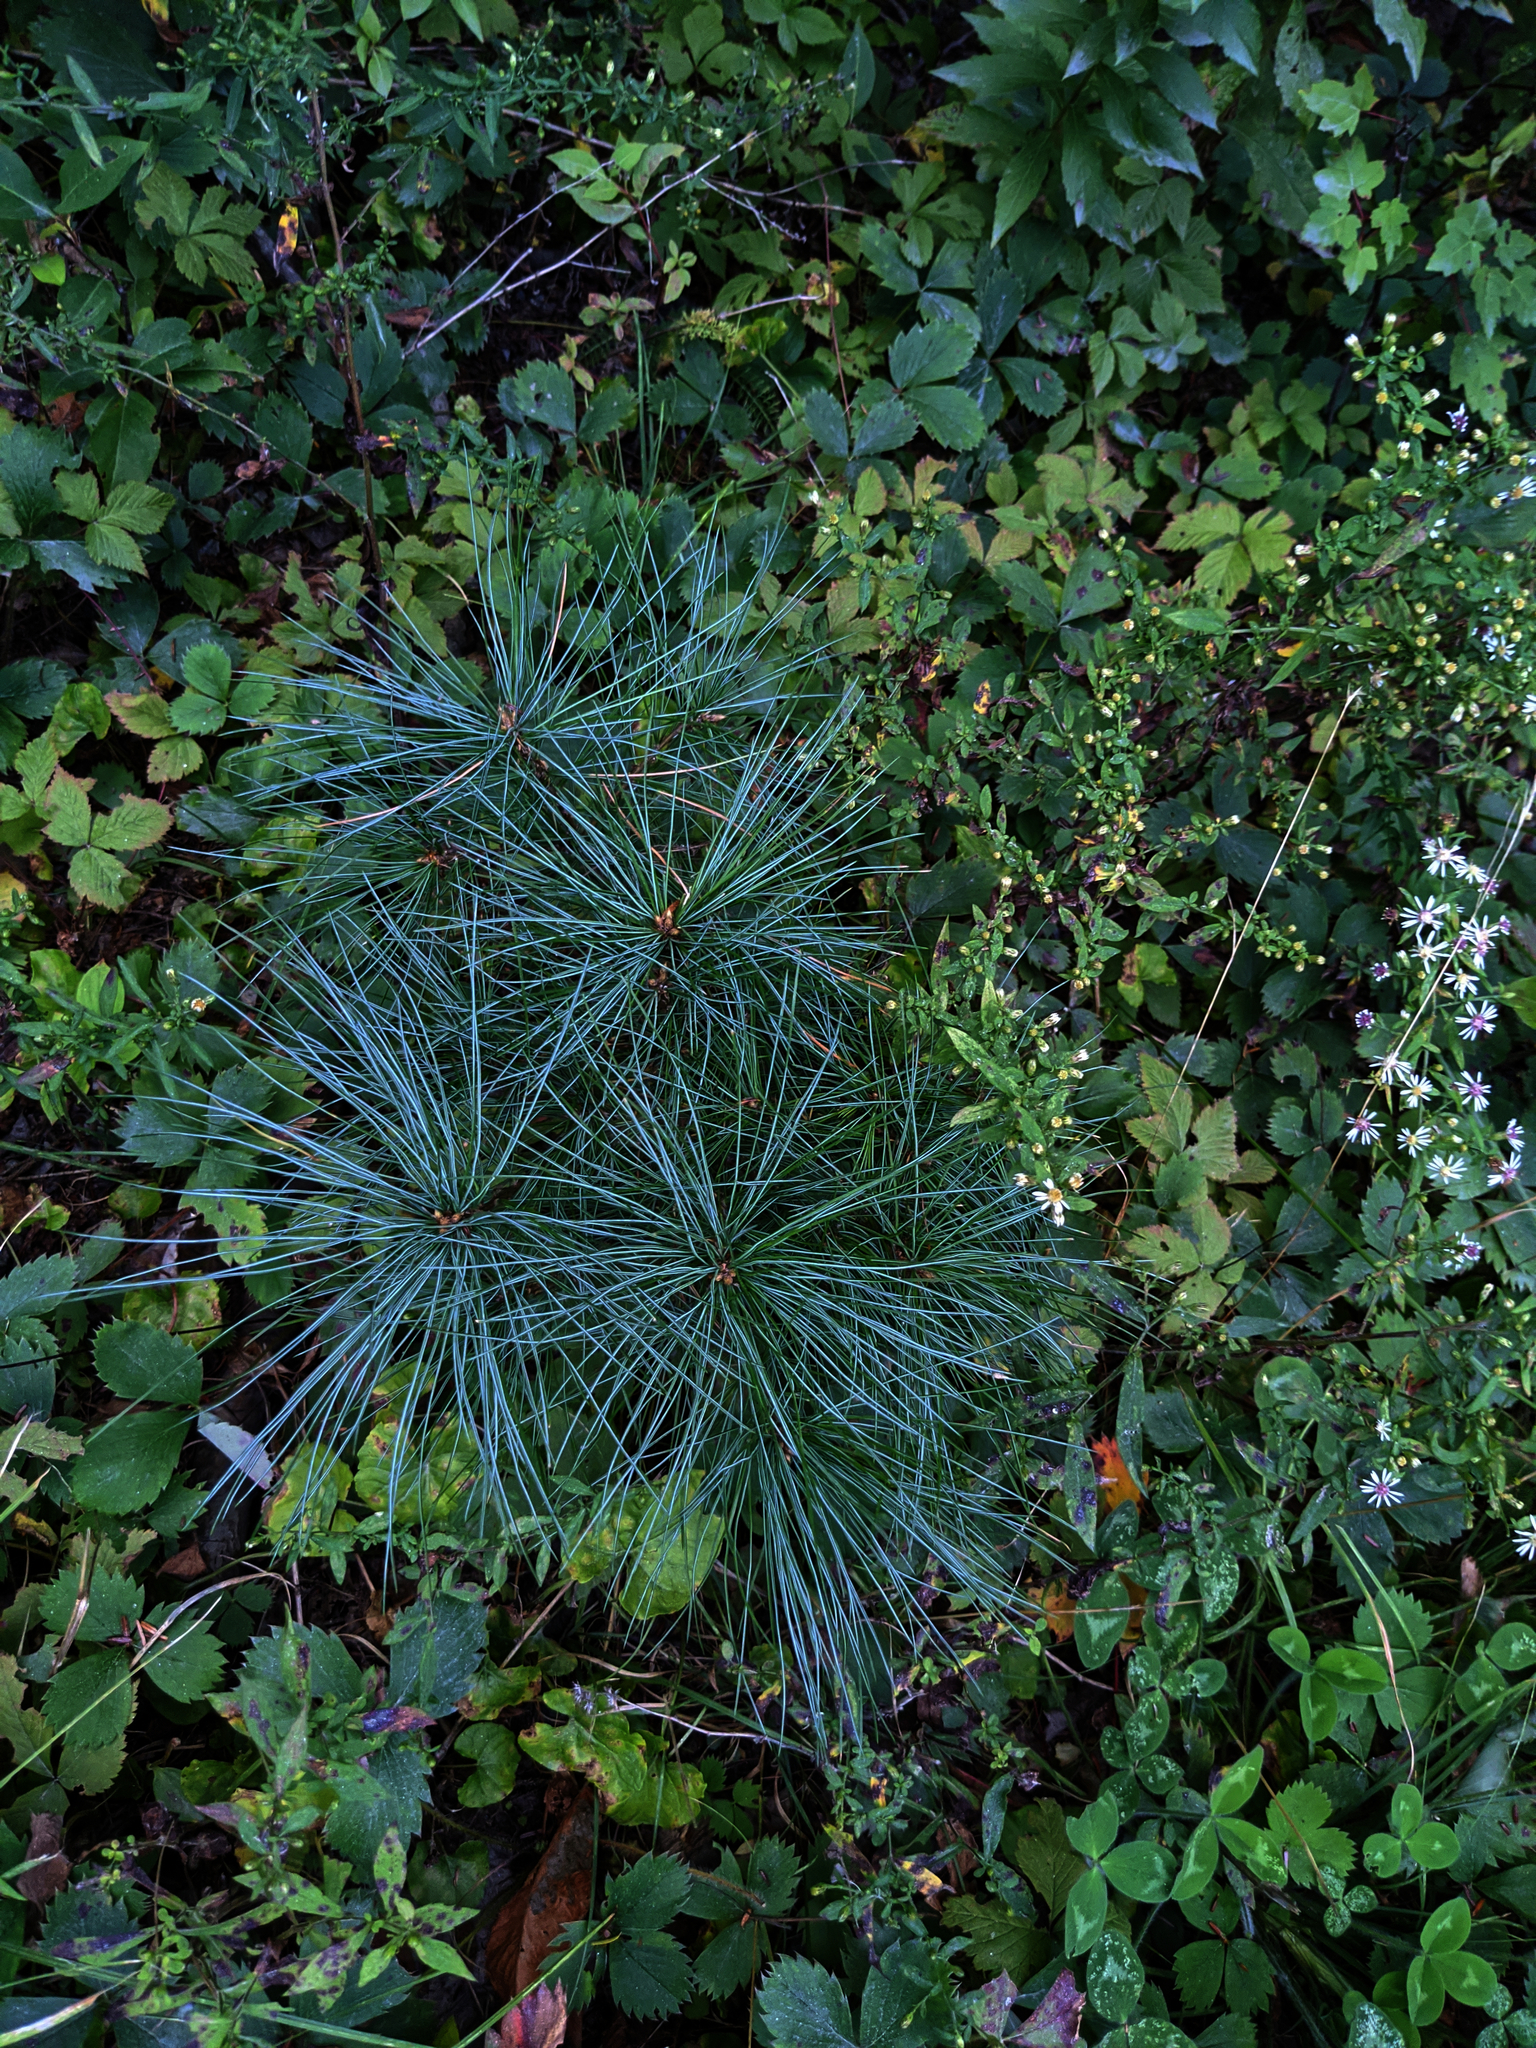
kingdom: Plantae
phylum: Tracheophyta
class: Pinopsida
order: Pinales
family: Pinaceae
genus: Pinus
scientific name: Pinus strobus
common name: Weymouth pine
